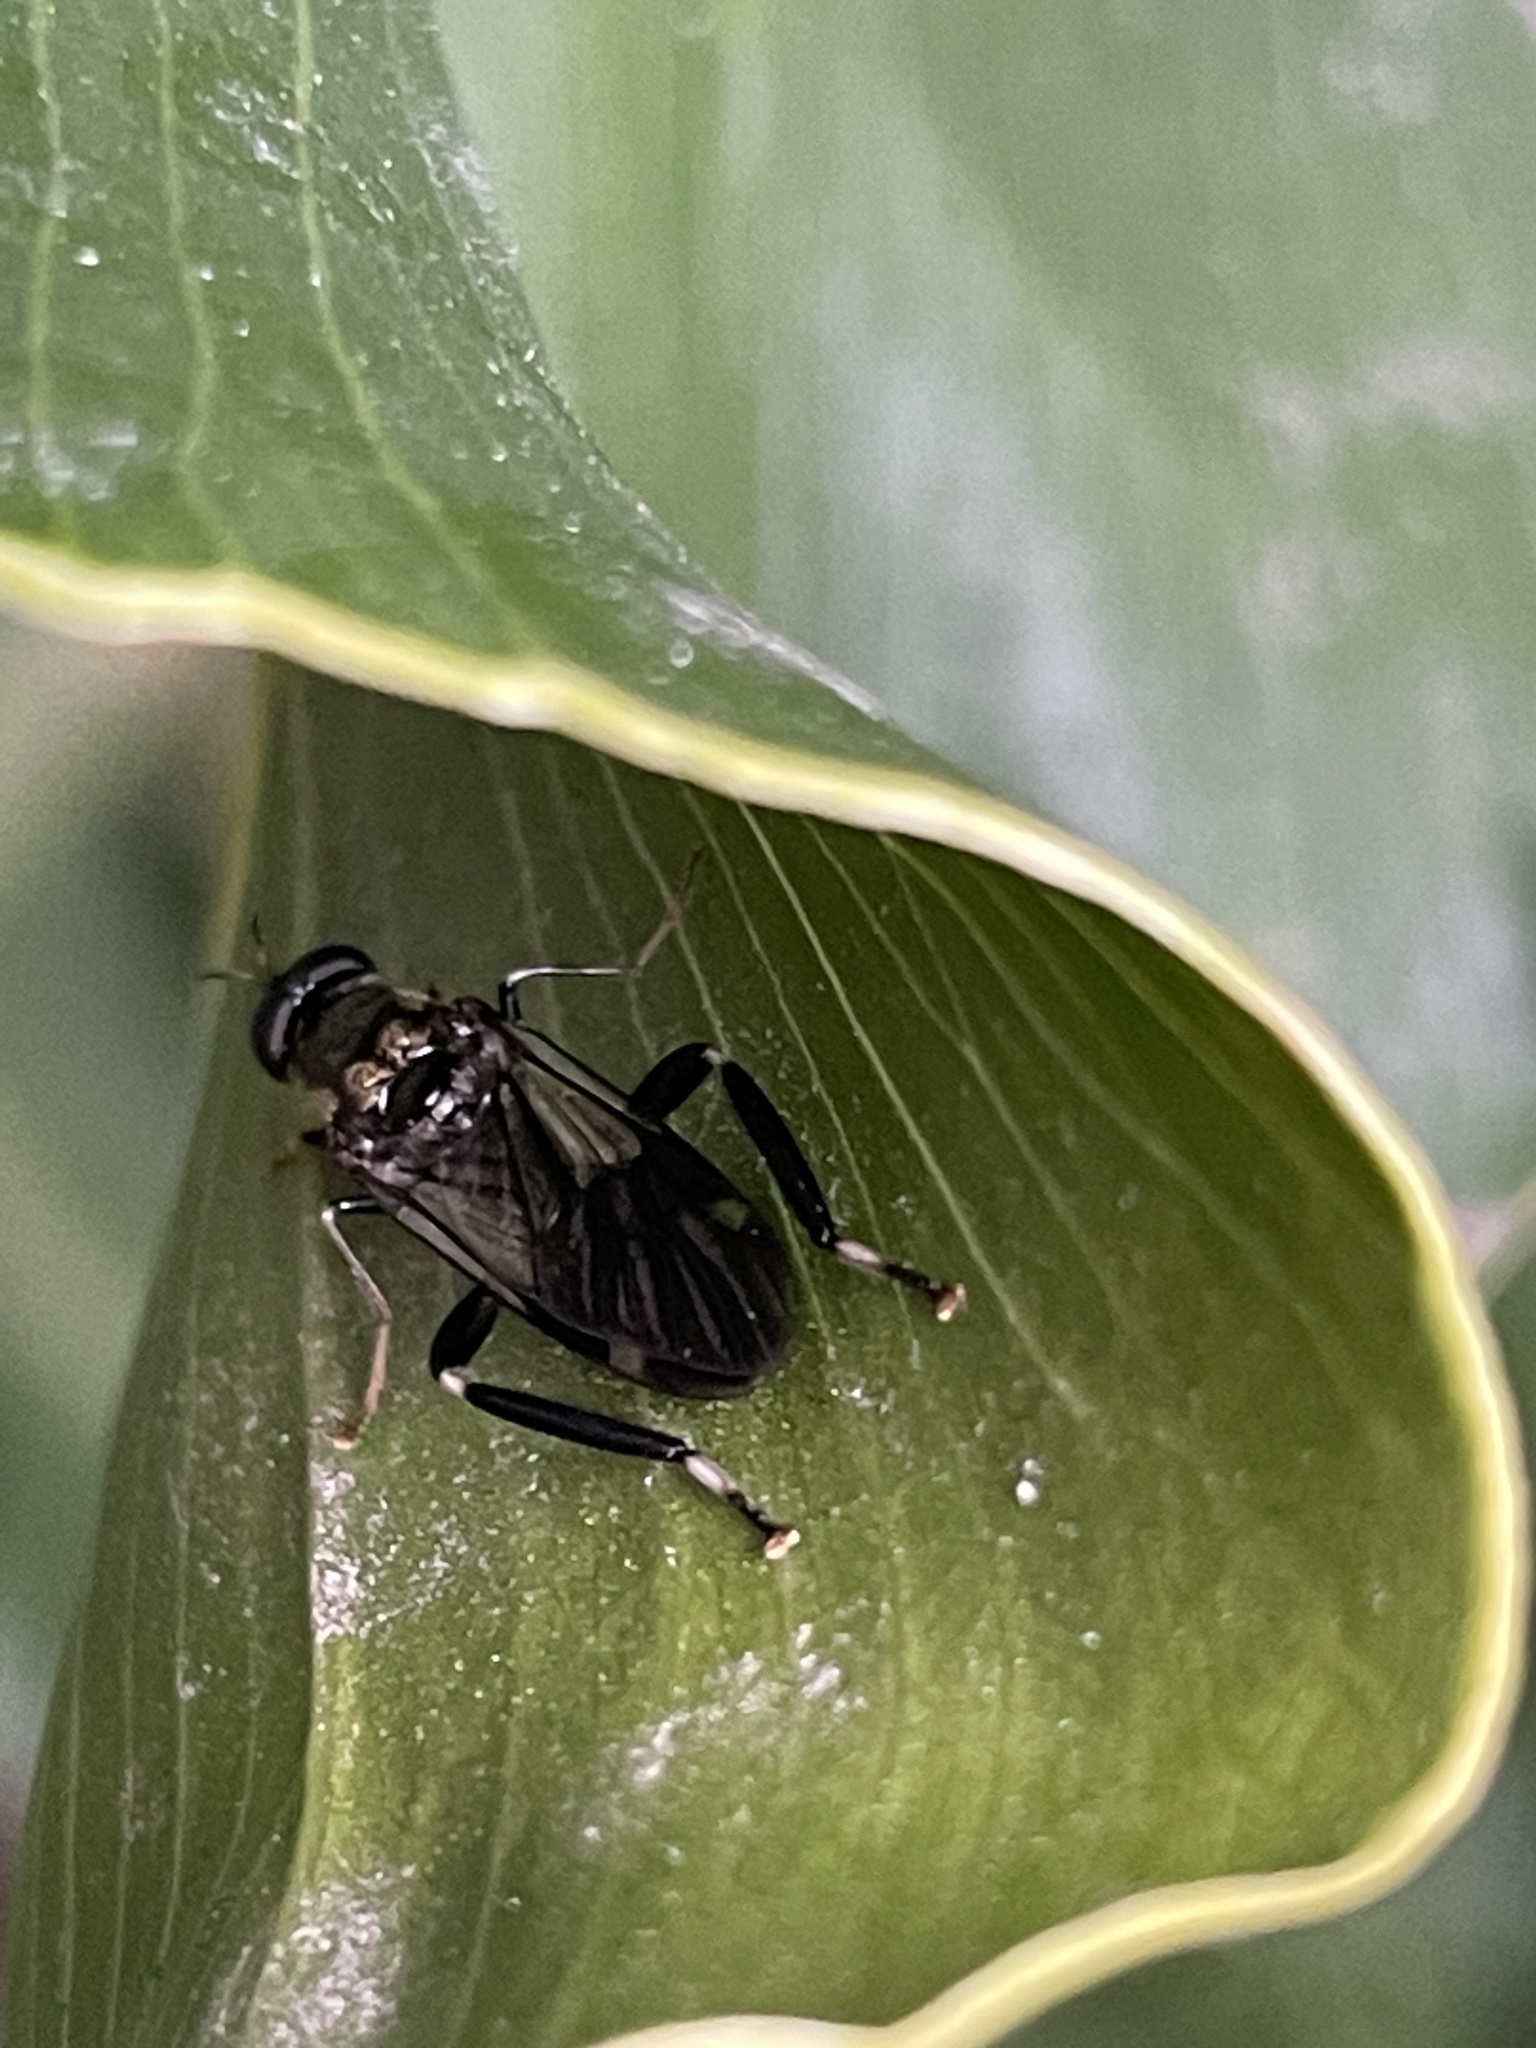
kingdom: Animalia
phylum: Arthropoda
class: Insecta
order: Diptera
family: Stratiomyidae
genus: Exaireta
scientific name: Exaireta spinigera
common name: Blue soldier fly
